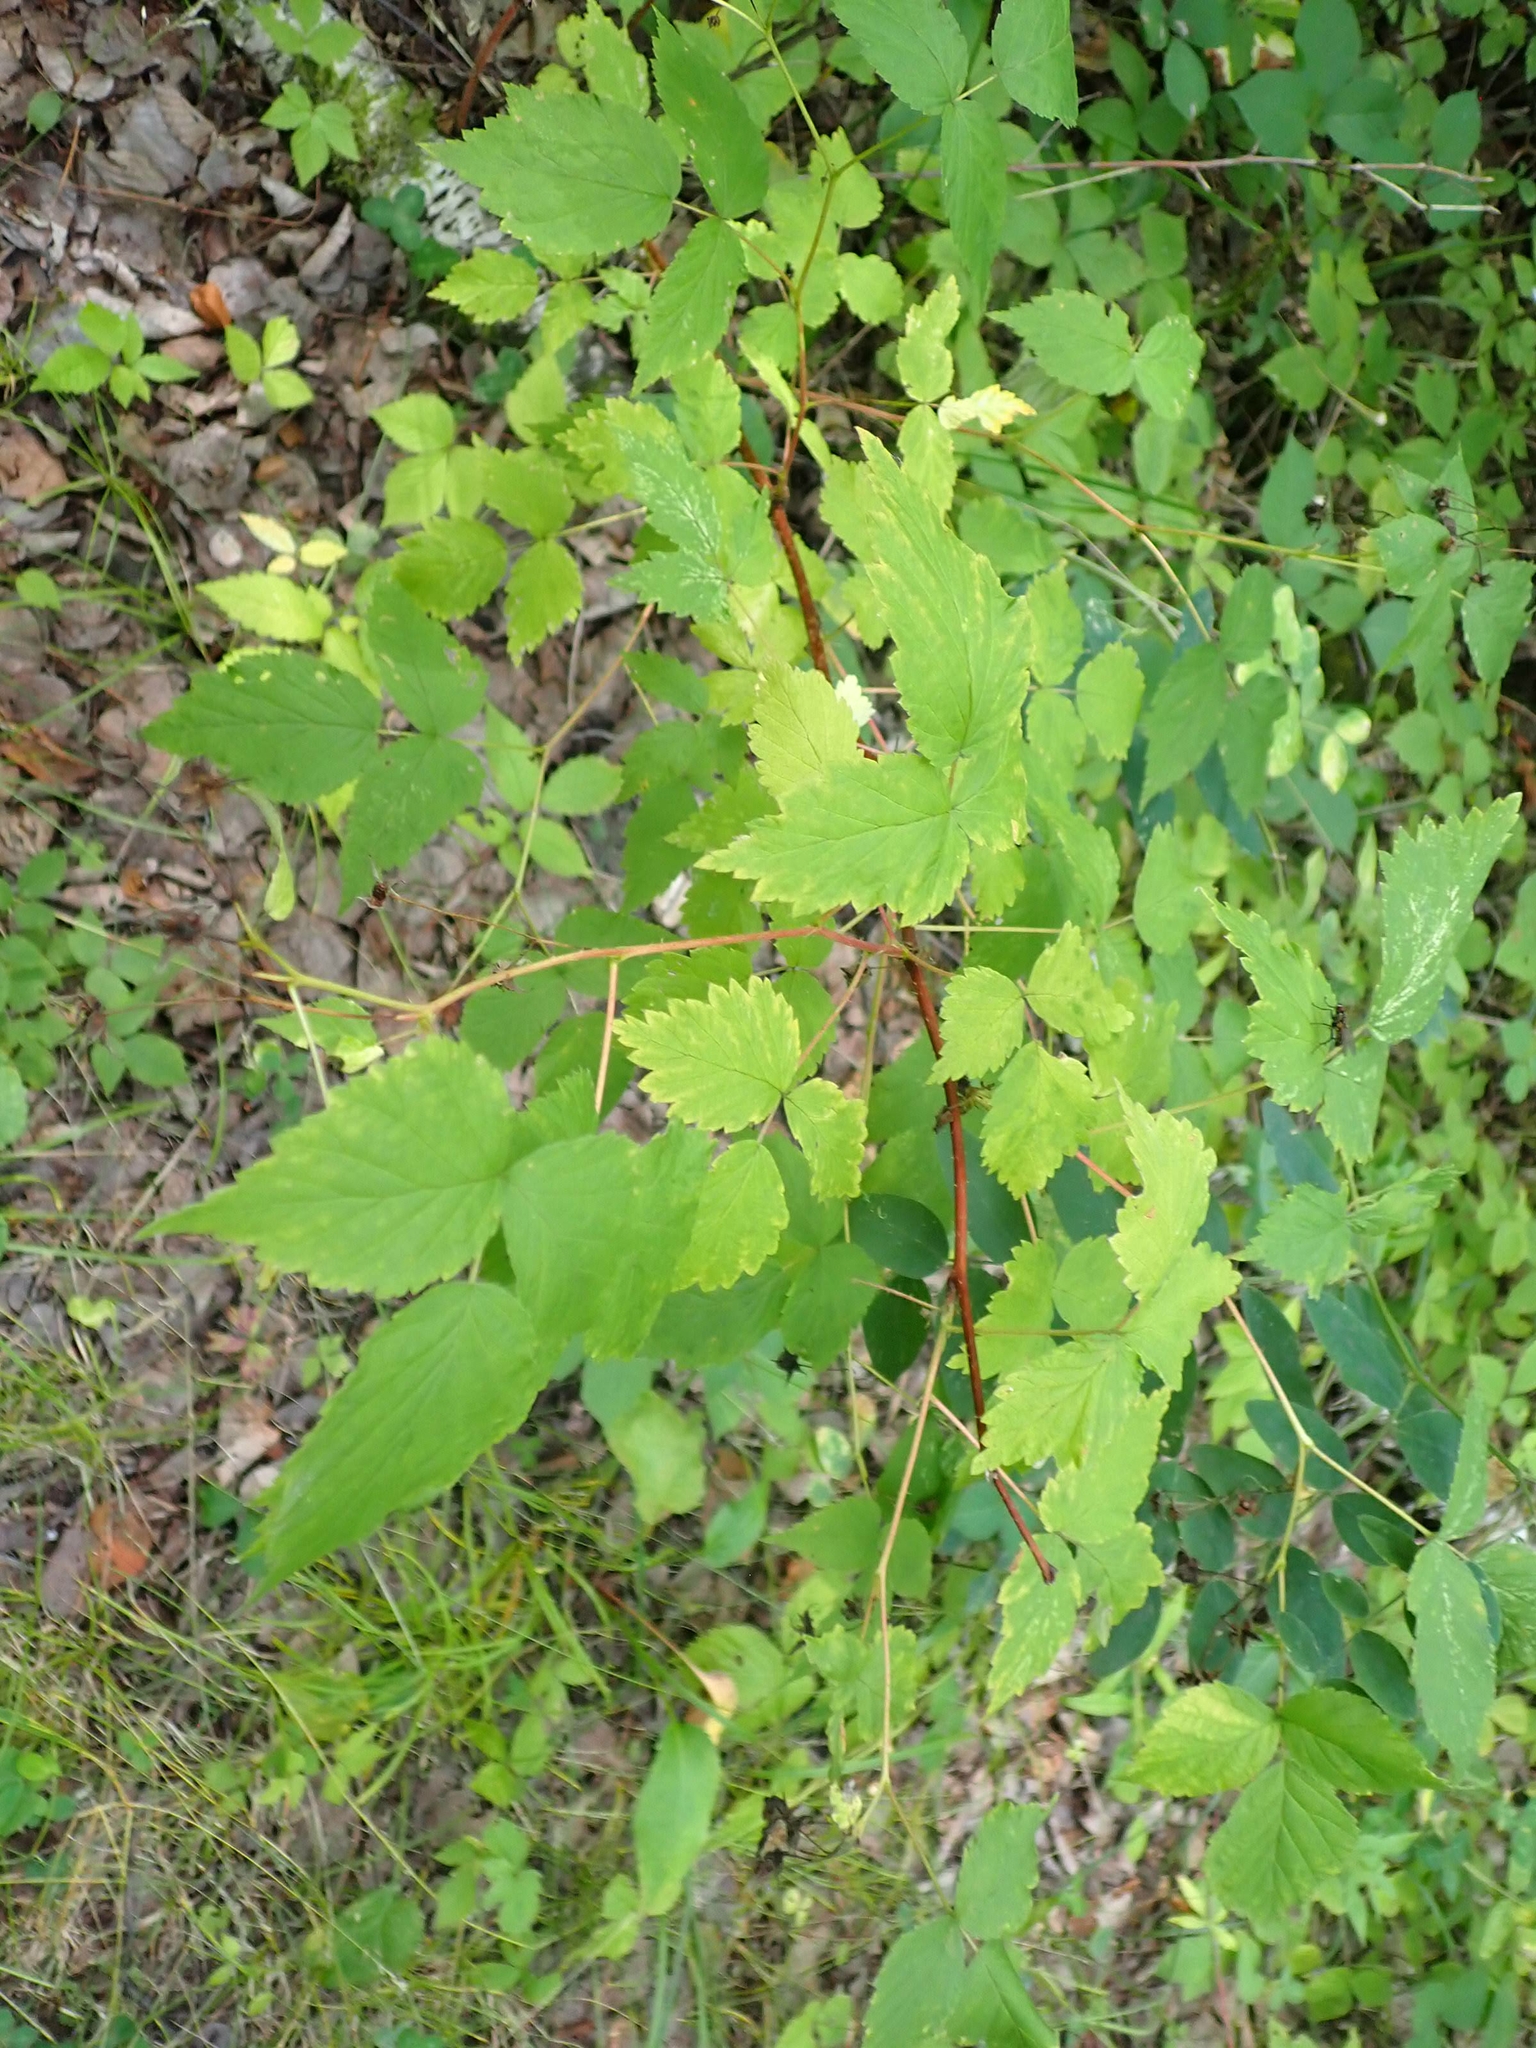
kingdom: Plantae
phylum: Tracheophyta
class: Magnoliopsida
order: Rosales
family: Rosaceae
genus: Rubus
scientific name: Rubus idaeus
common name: Raspberry
